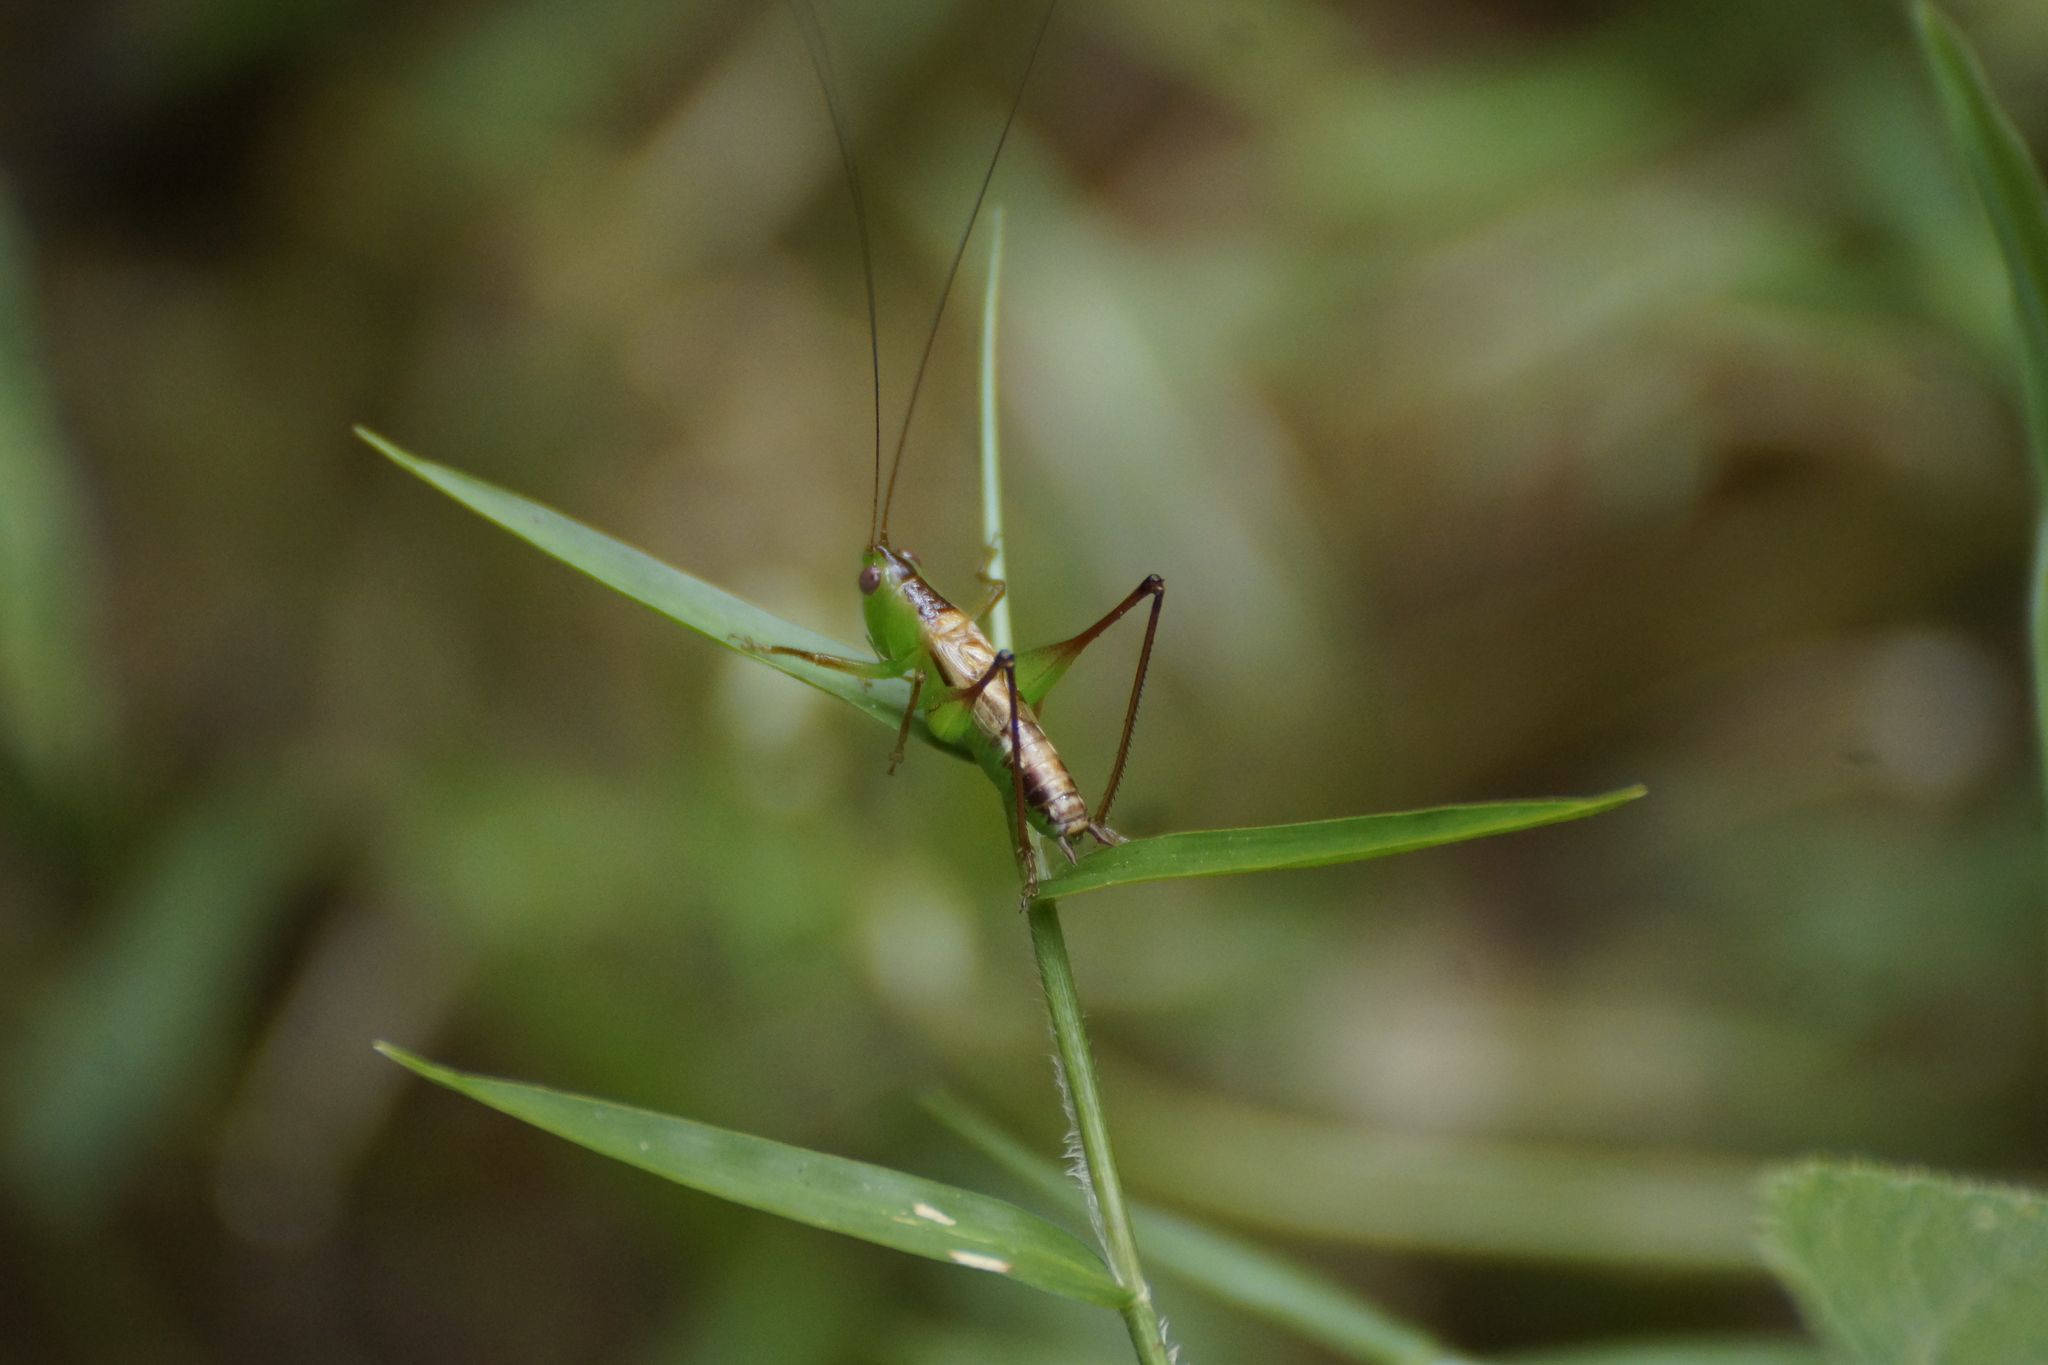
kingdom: Animalia
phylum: Arthropoda
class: Insecta
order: Orthoptera
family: Tettigoniidae
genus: Conocephalus
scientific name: Conocephalus semivittatus
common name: Blackish meadow katydid
